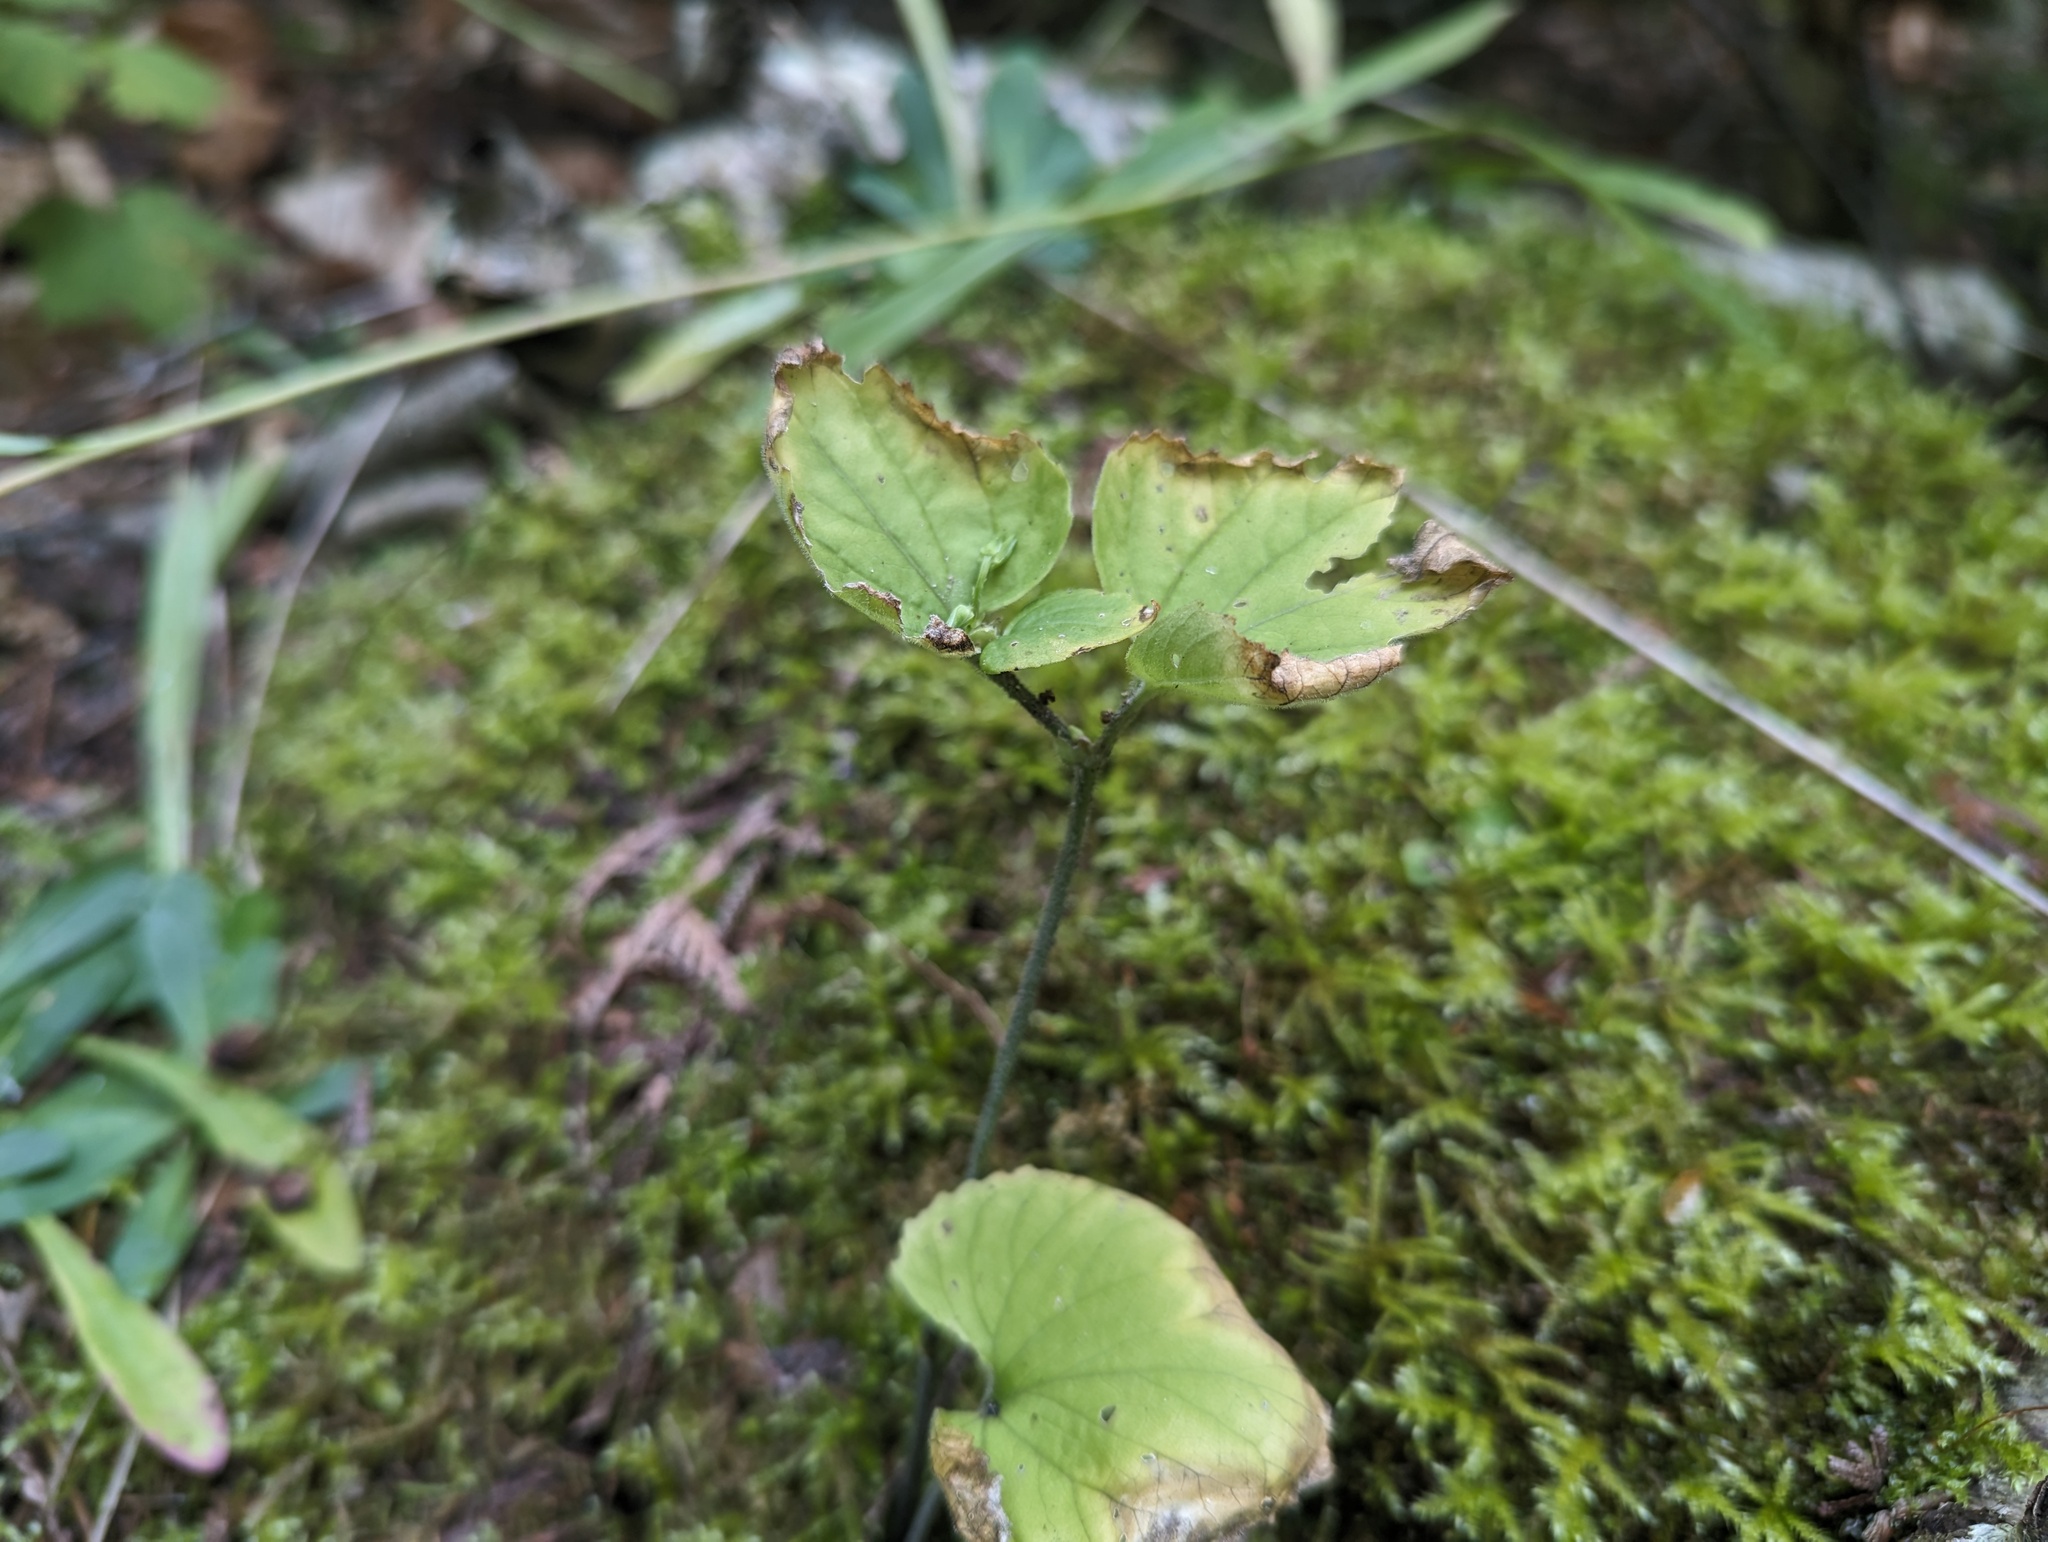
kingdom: Plantae
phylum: Tracheophyta
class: Magnoliopsida
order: Malpighiales
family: Violaceae
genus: Viola
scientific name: Viola pubescens
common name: Yellow forest violet
